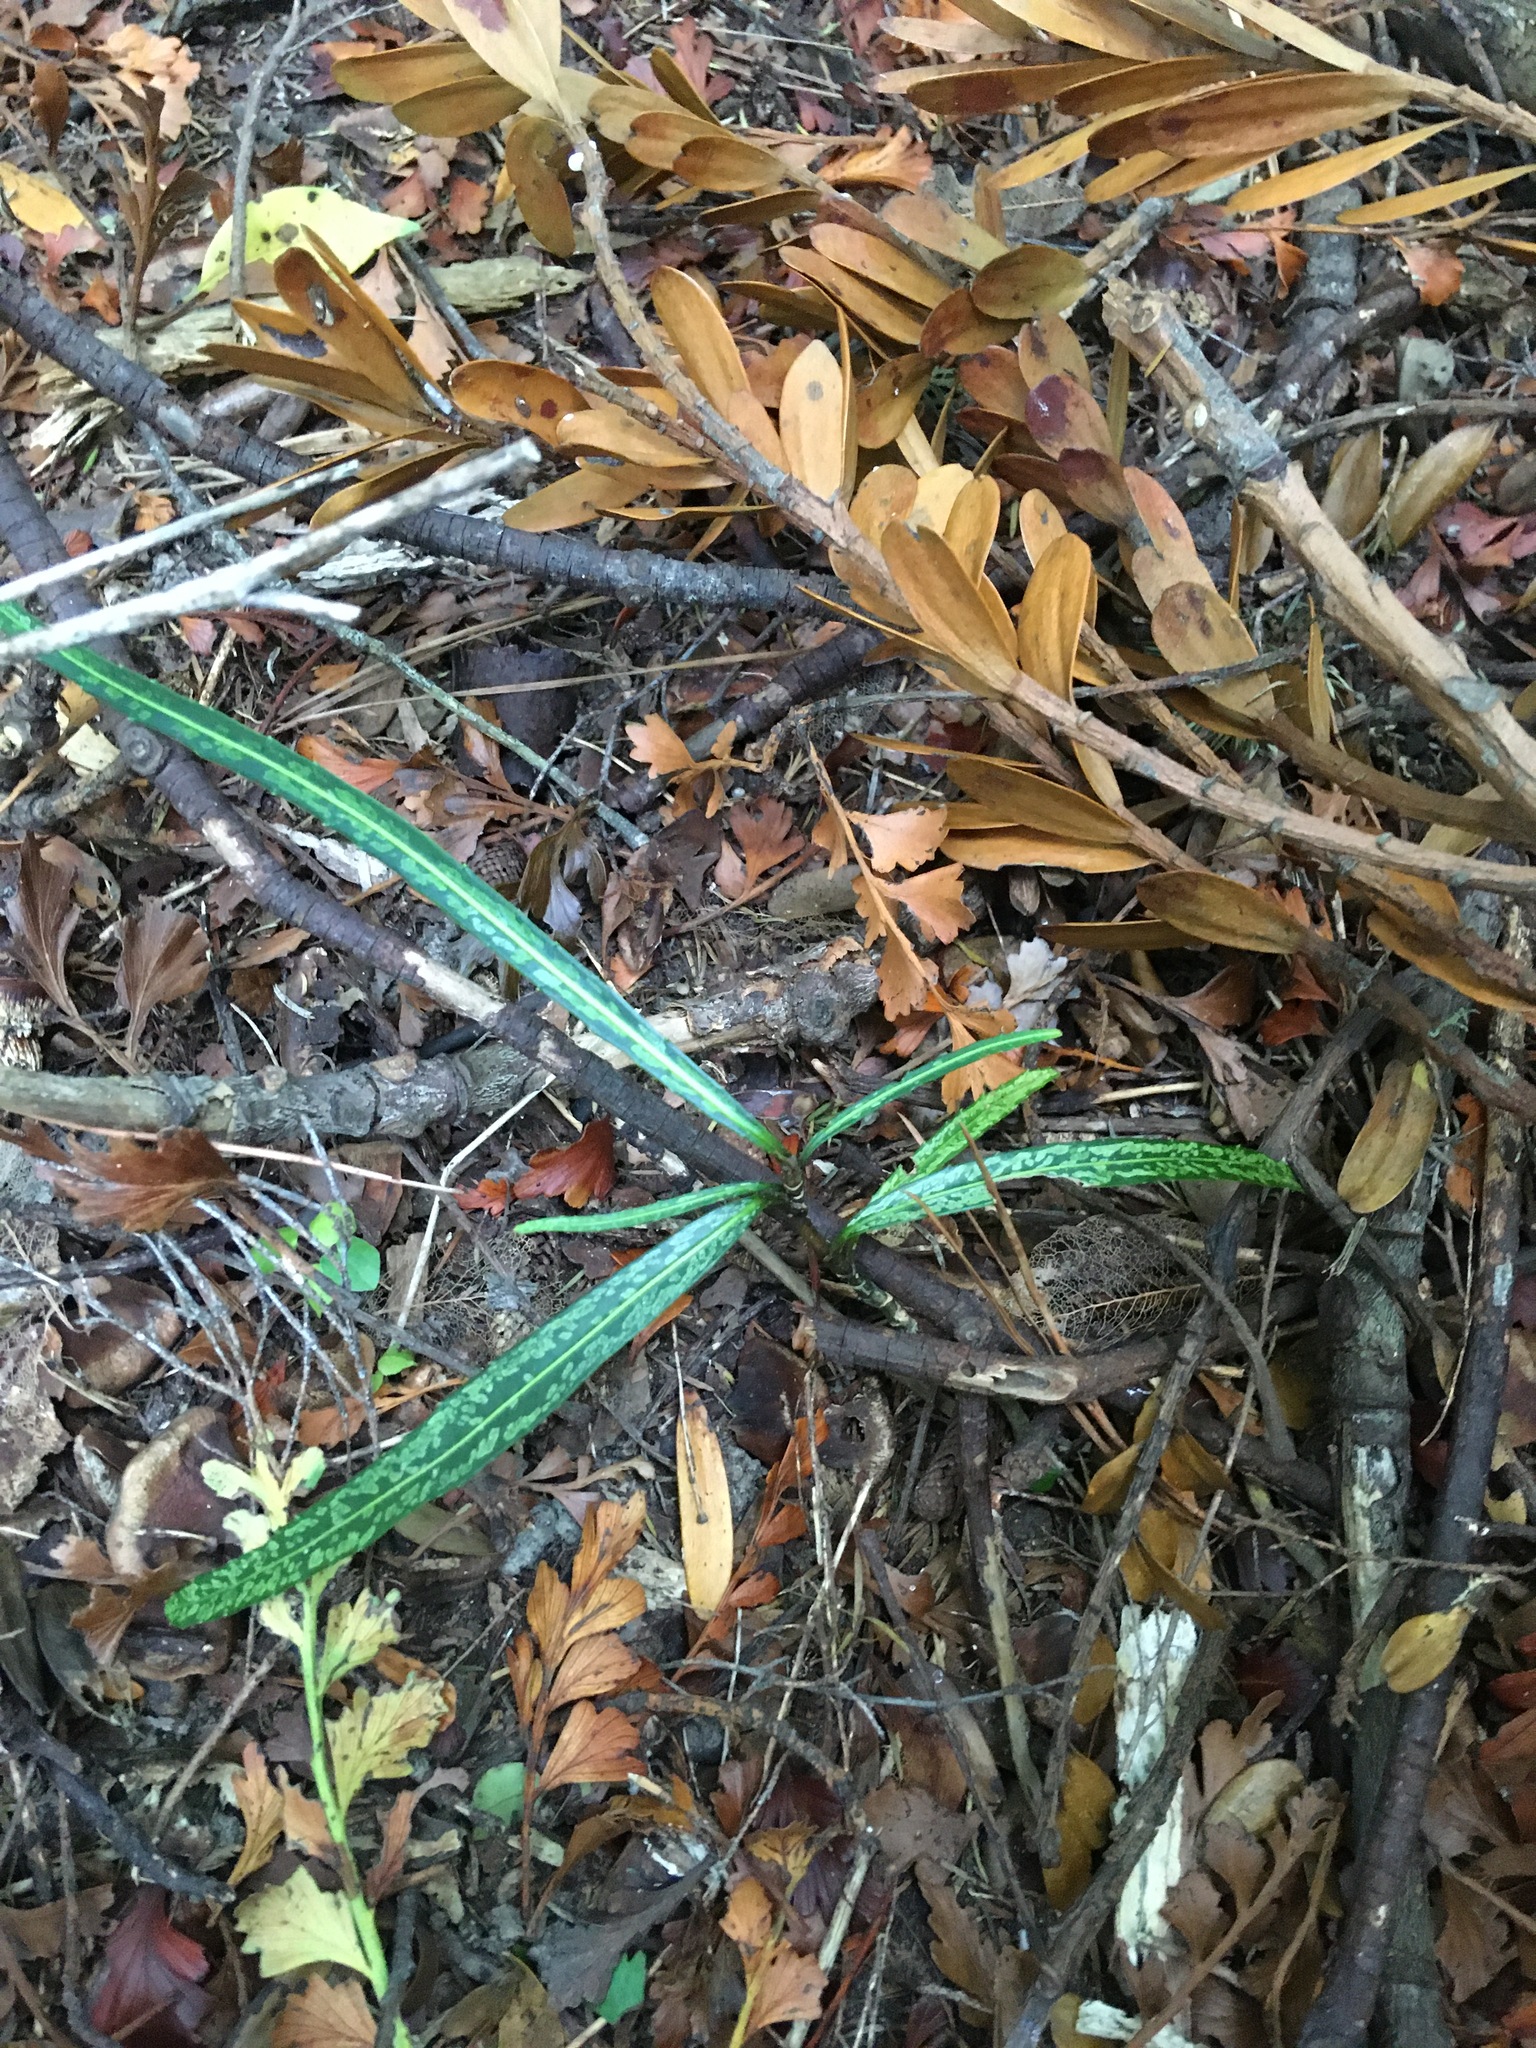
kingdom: Plantae
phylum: Tracheophyta
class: Magnoliopsida
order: Apiales
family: Araliaceae
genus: Pseudopanax
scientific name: Pseudopanax crassifolius
